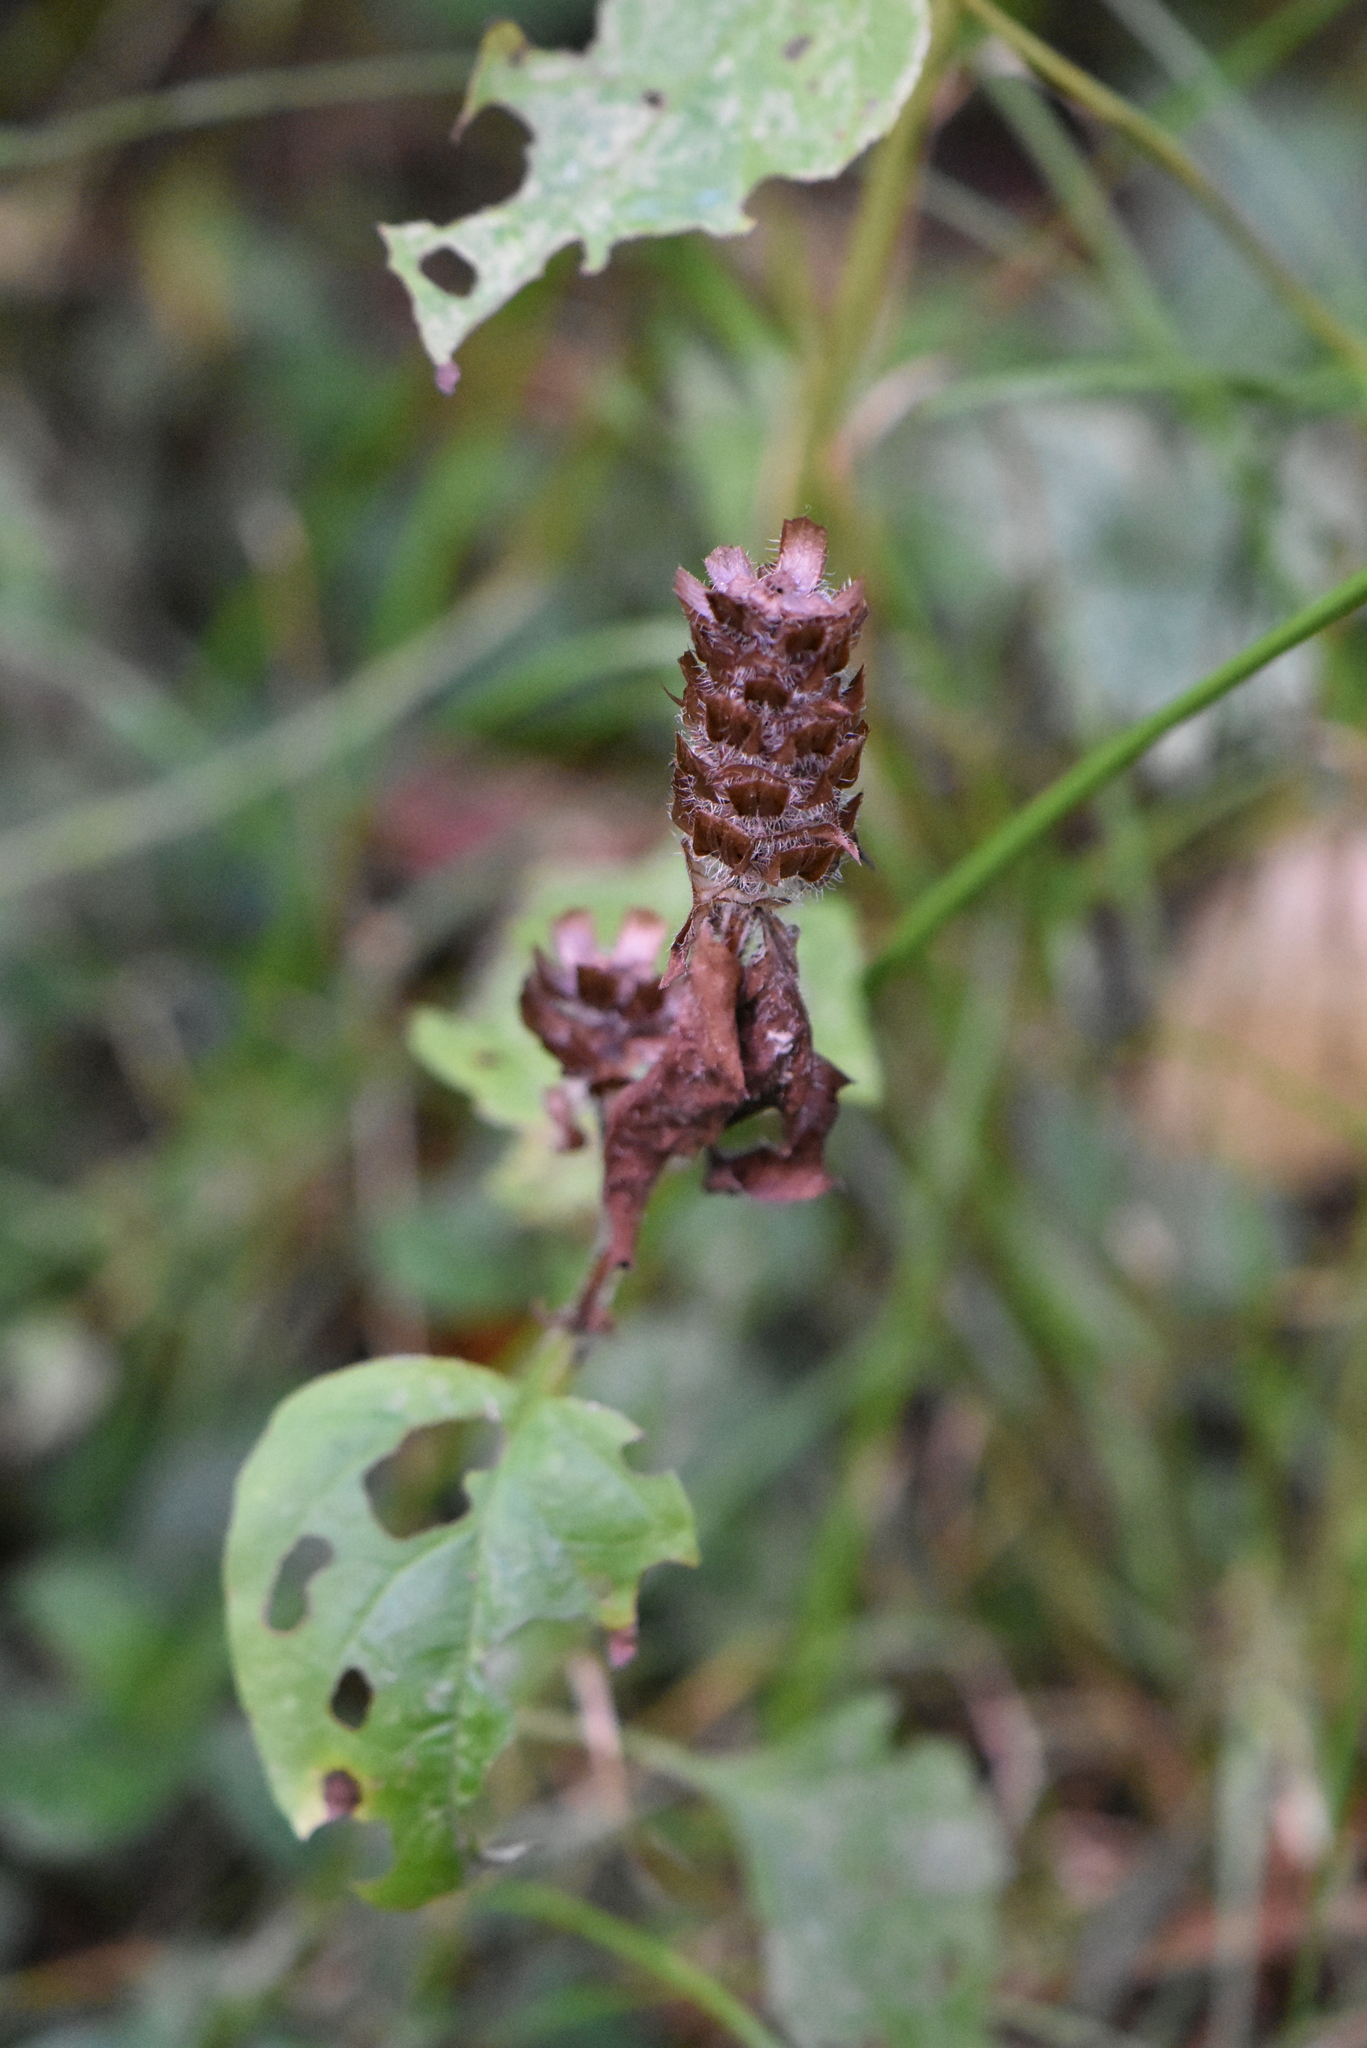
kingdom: Plantae
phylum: Tracheophyta
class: Magnoliopsida
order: Lamiales
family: Lamiaceae
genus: Prunella
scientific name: Prunella vulgaris
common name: Heal-all
